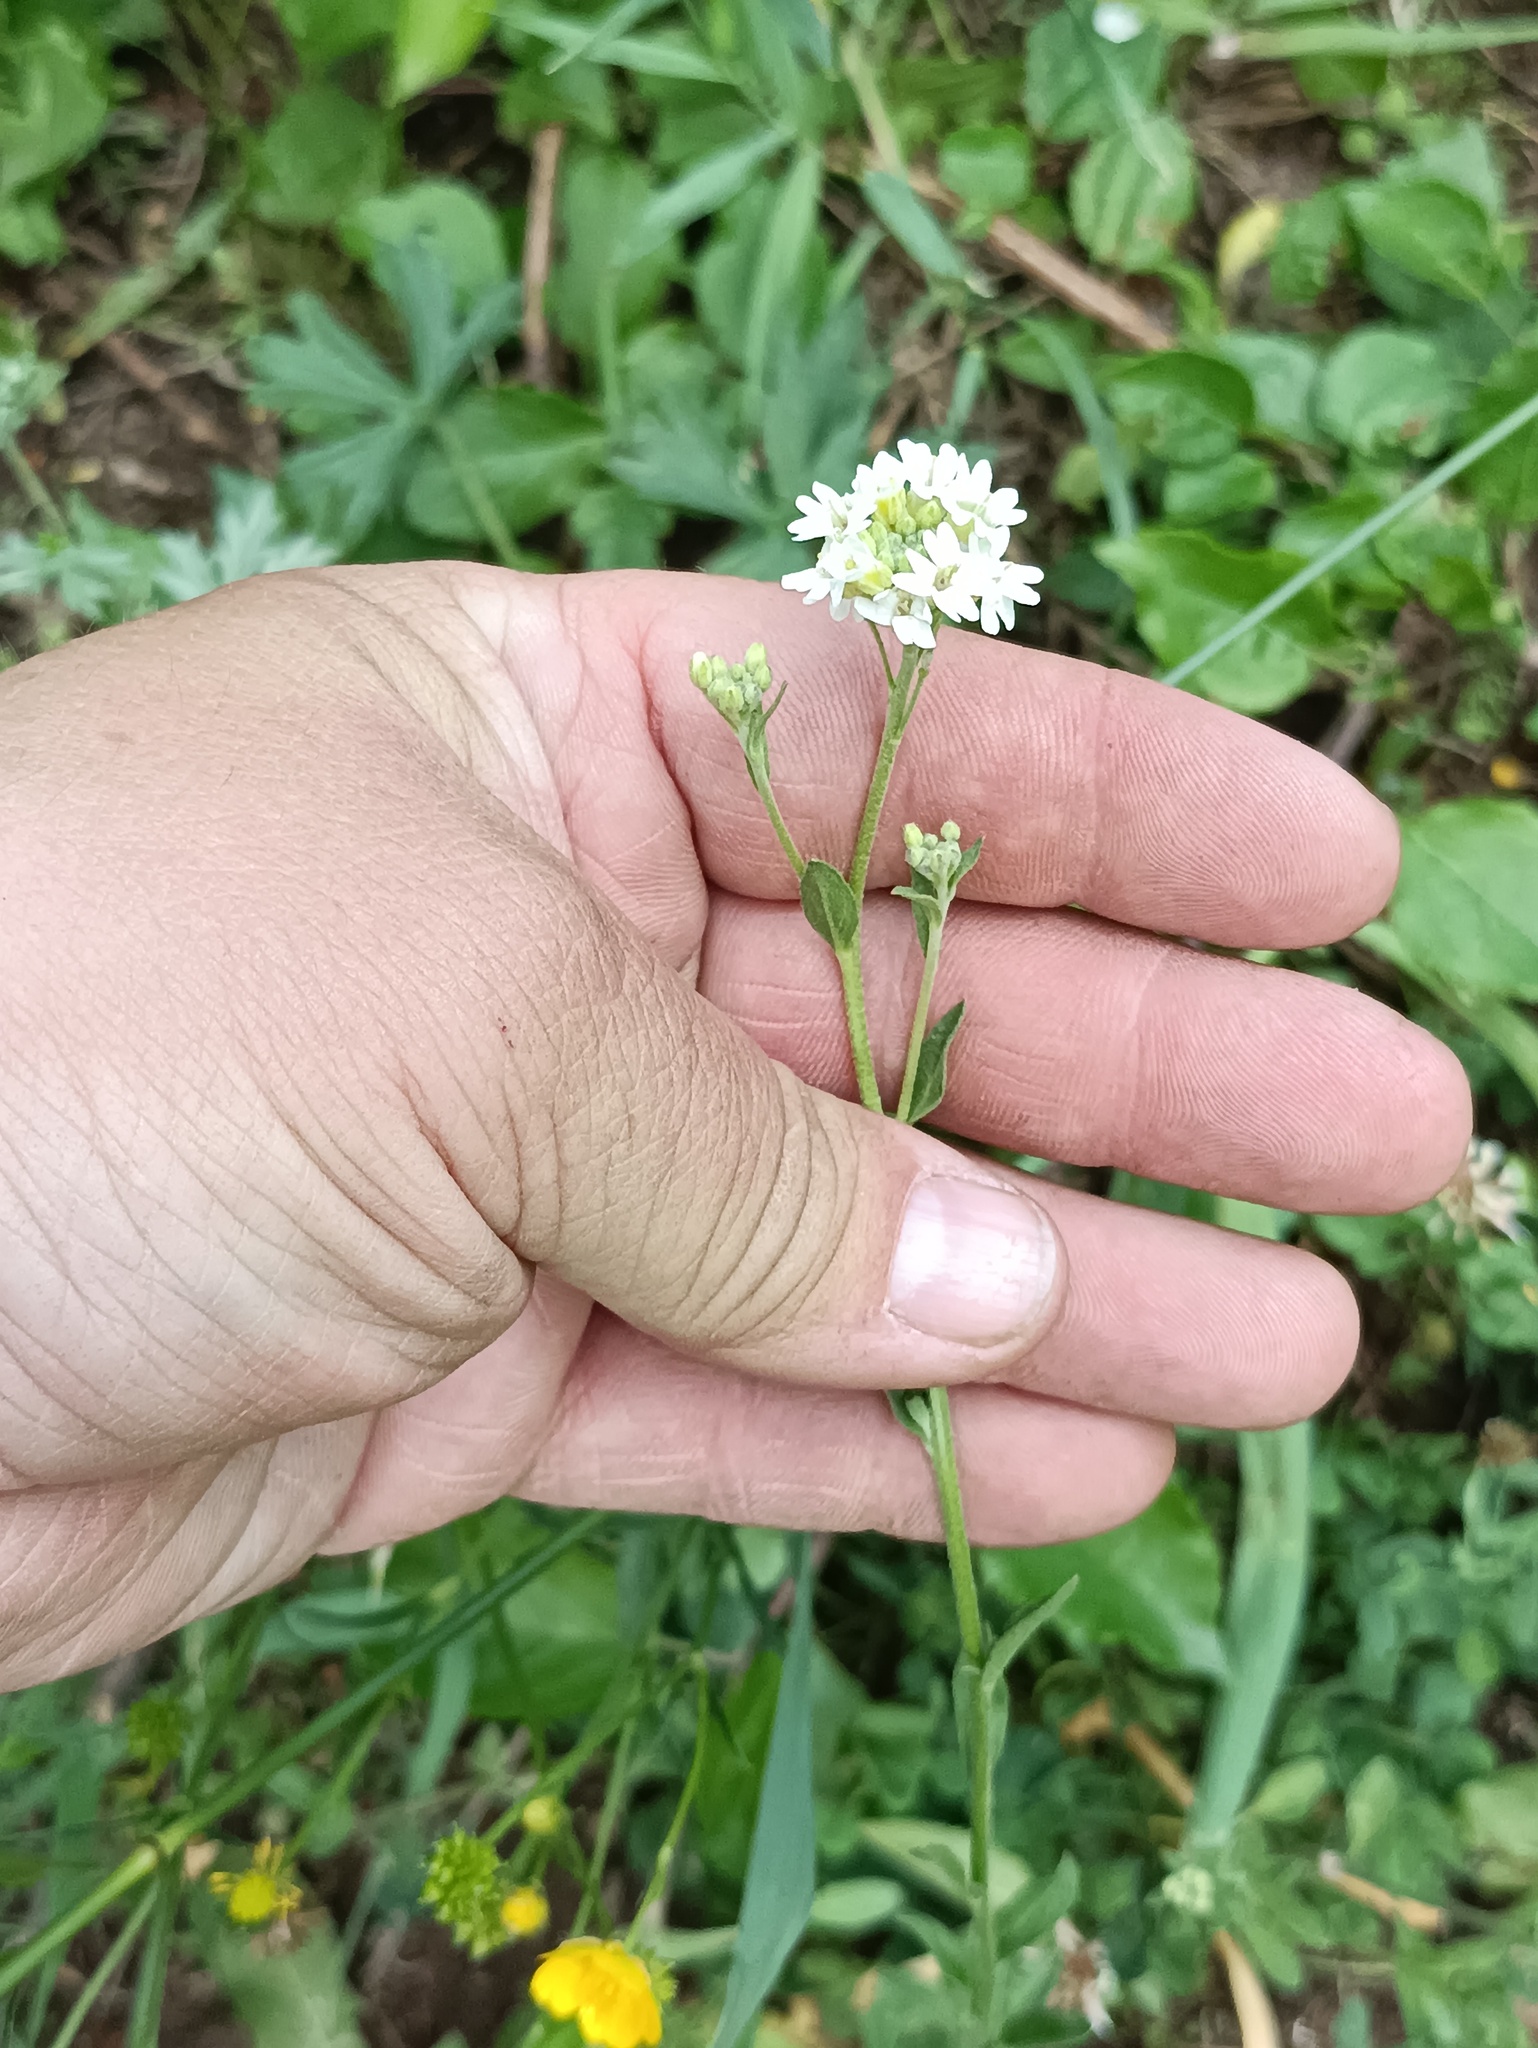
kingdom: Plantae
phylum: Tracheophyta
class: Magnoliopsida
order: Brassicales
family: Brassicaceae
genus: Berteroa
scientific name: Berteroa incana
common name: Hoary alison
